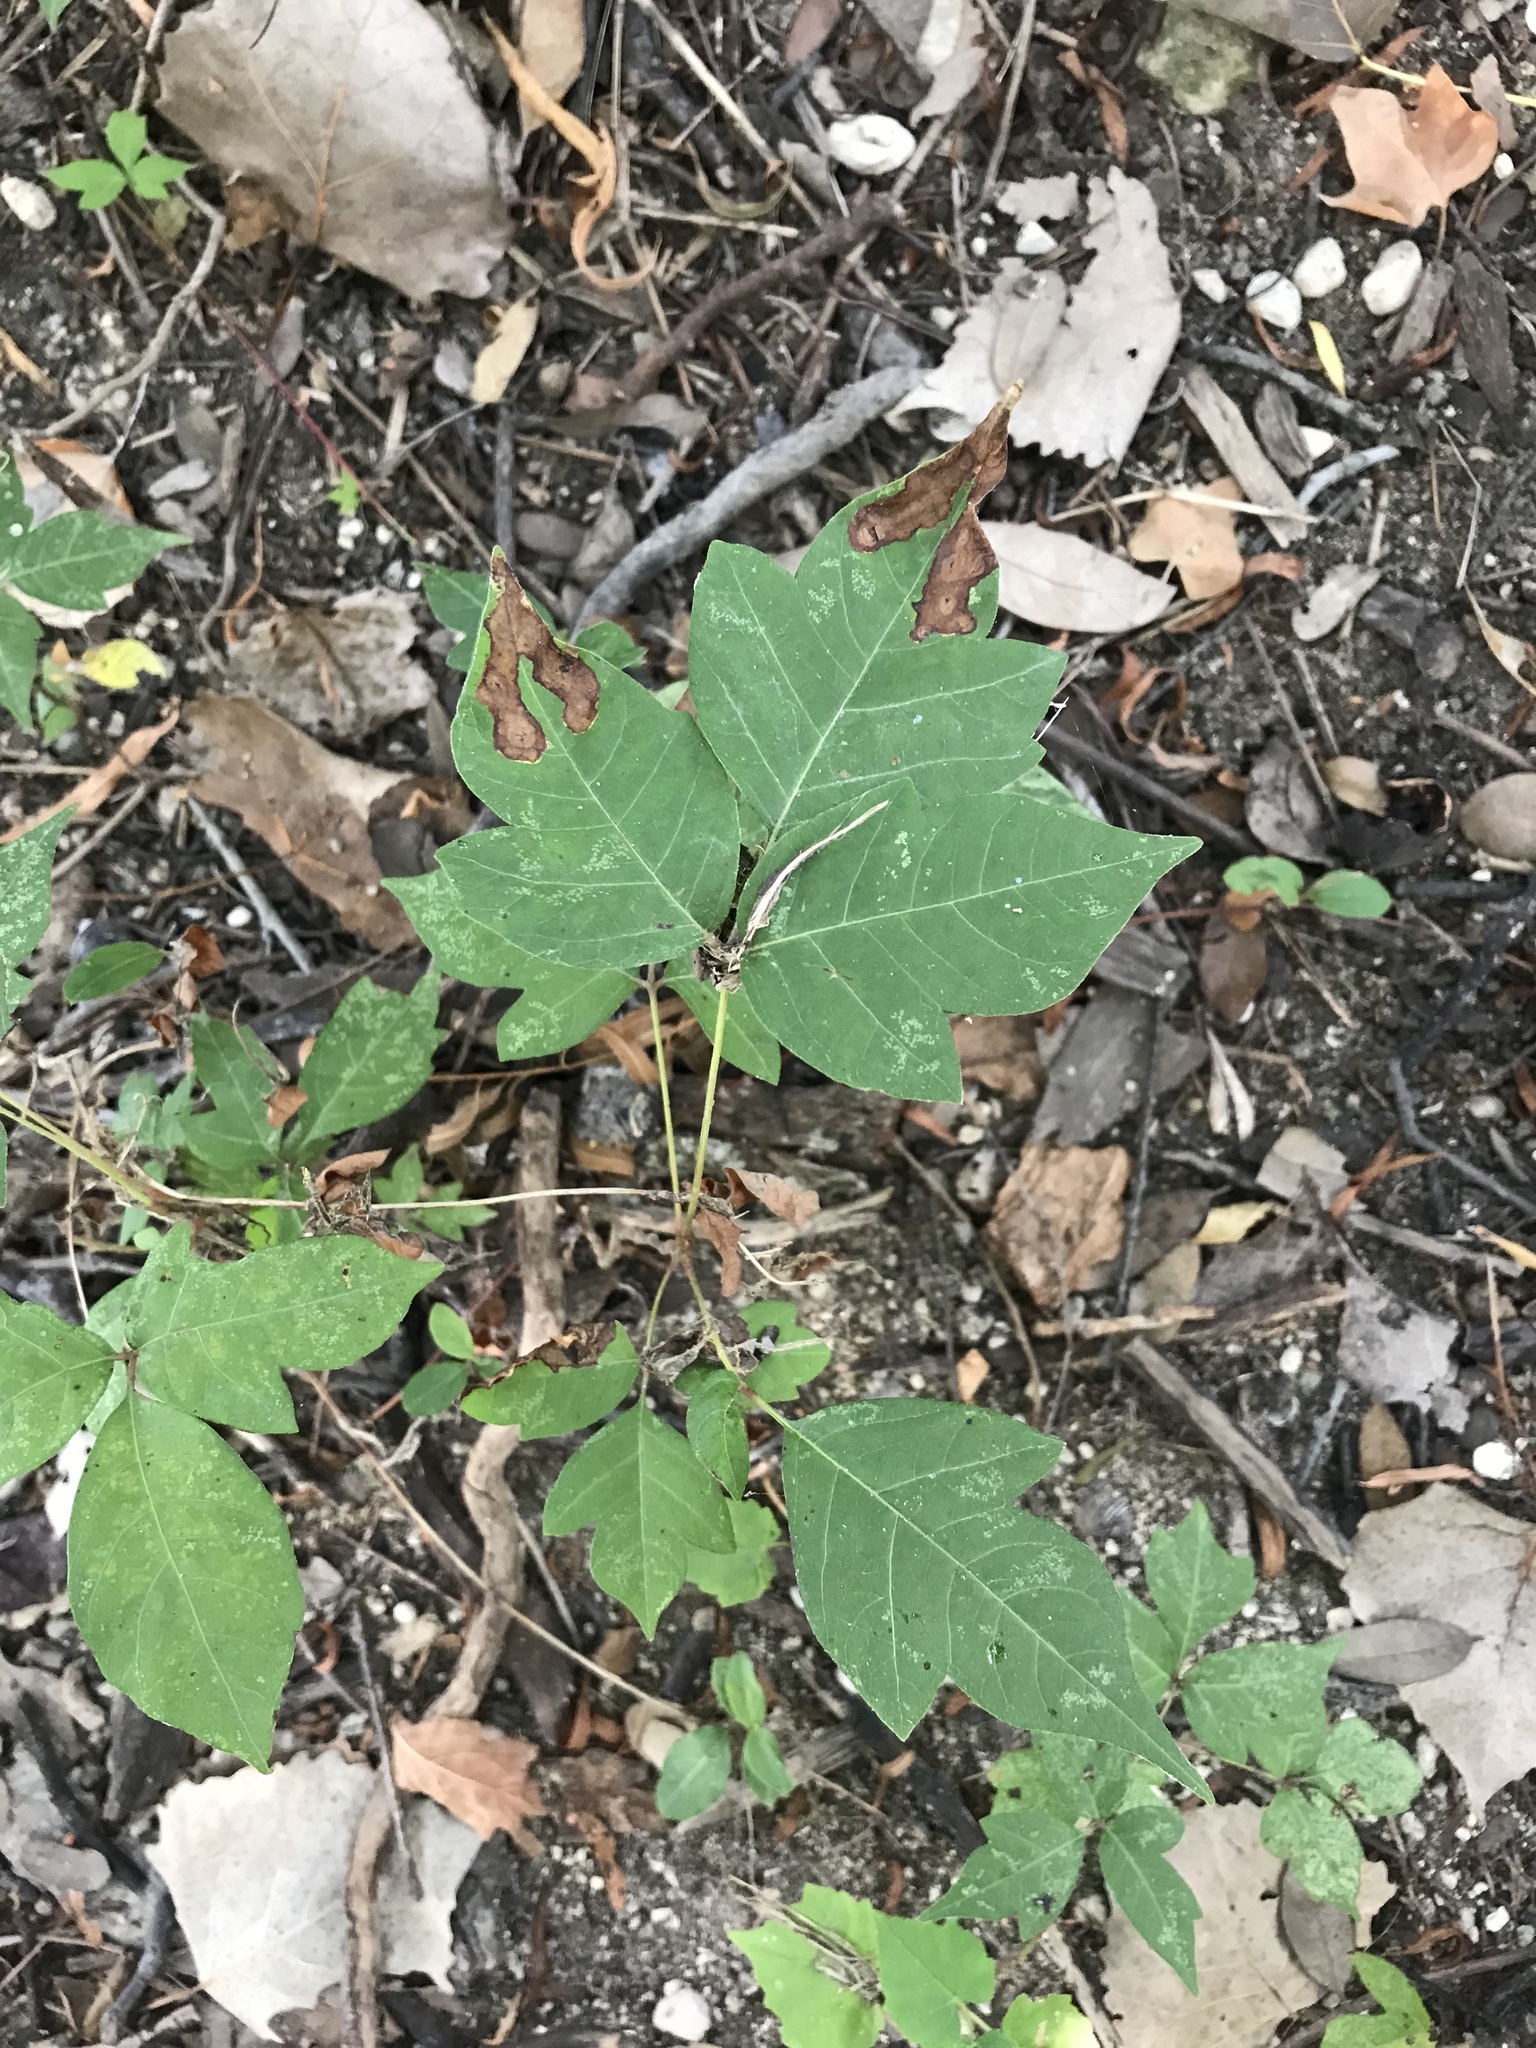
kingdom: Plantae
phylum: Tracheophyta
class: Magnoliopsida
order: Sapindales
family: Anacardiaceae
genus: Toxicodendron
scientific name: Toxicodendron radicans
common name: Poison ivy
